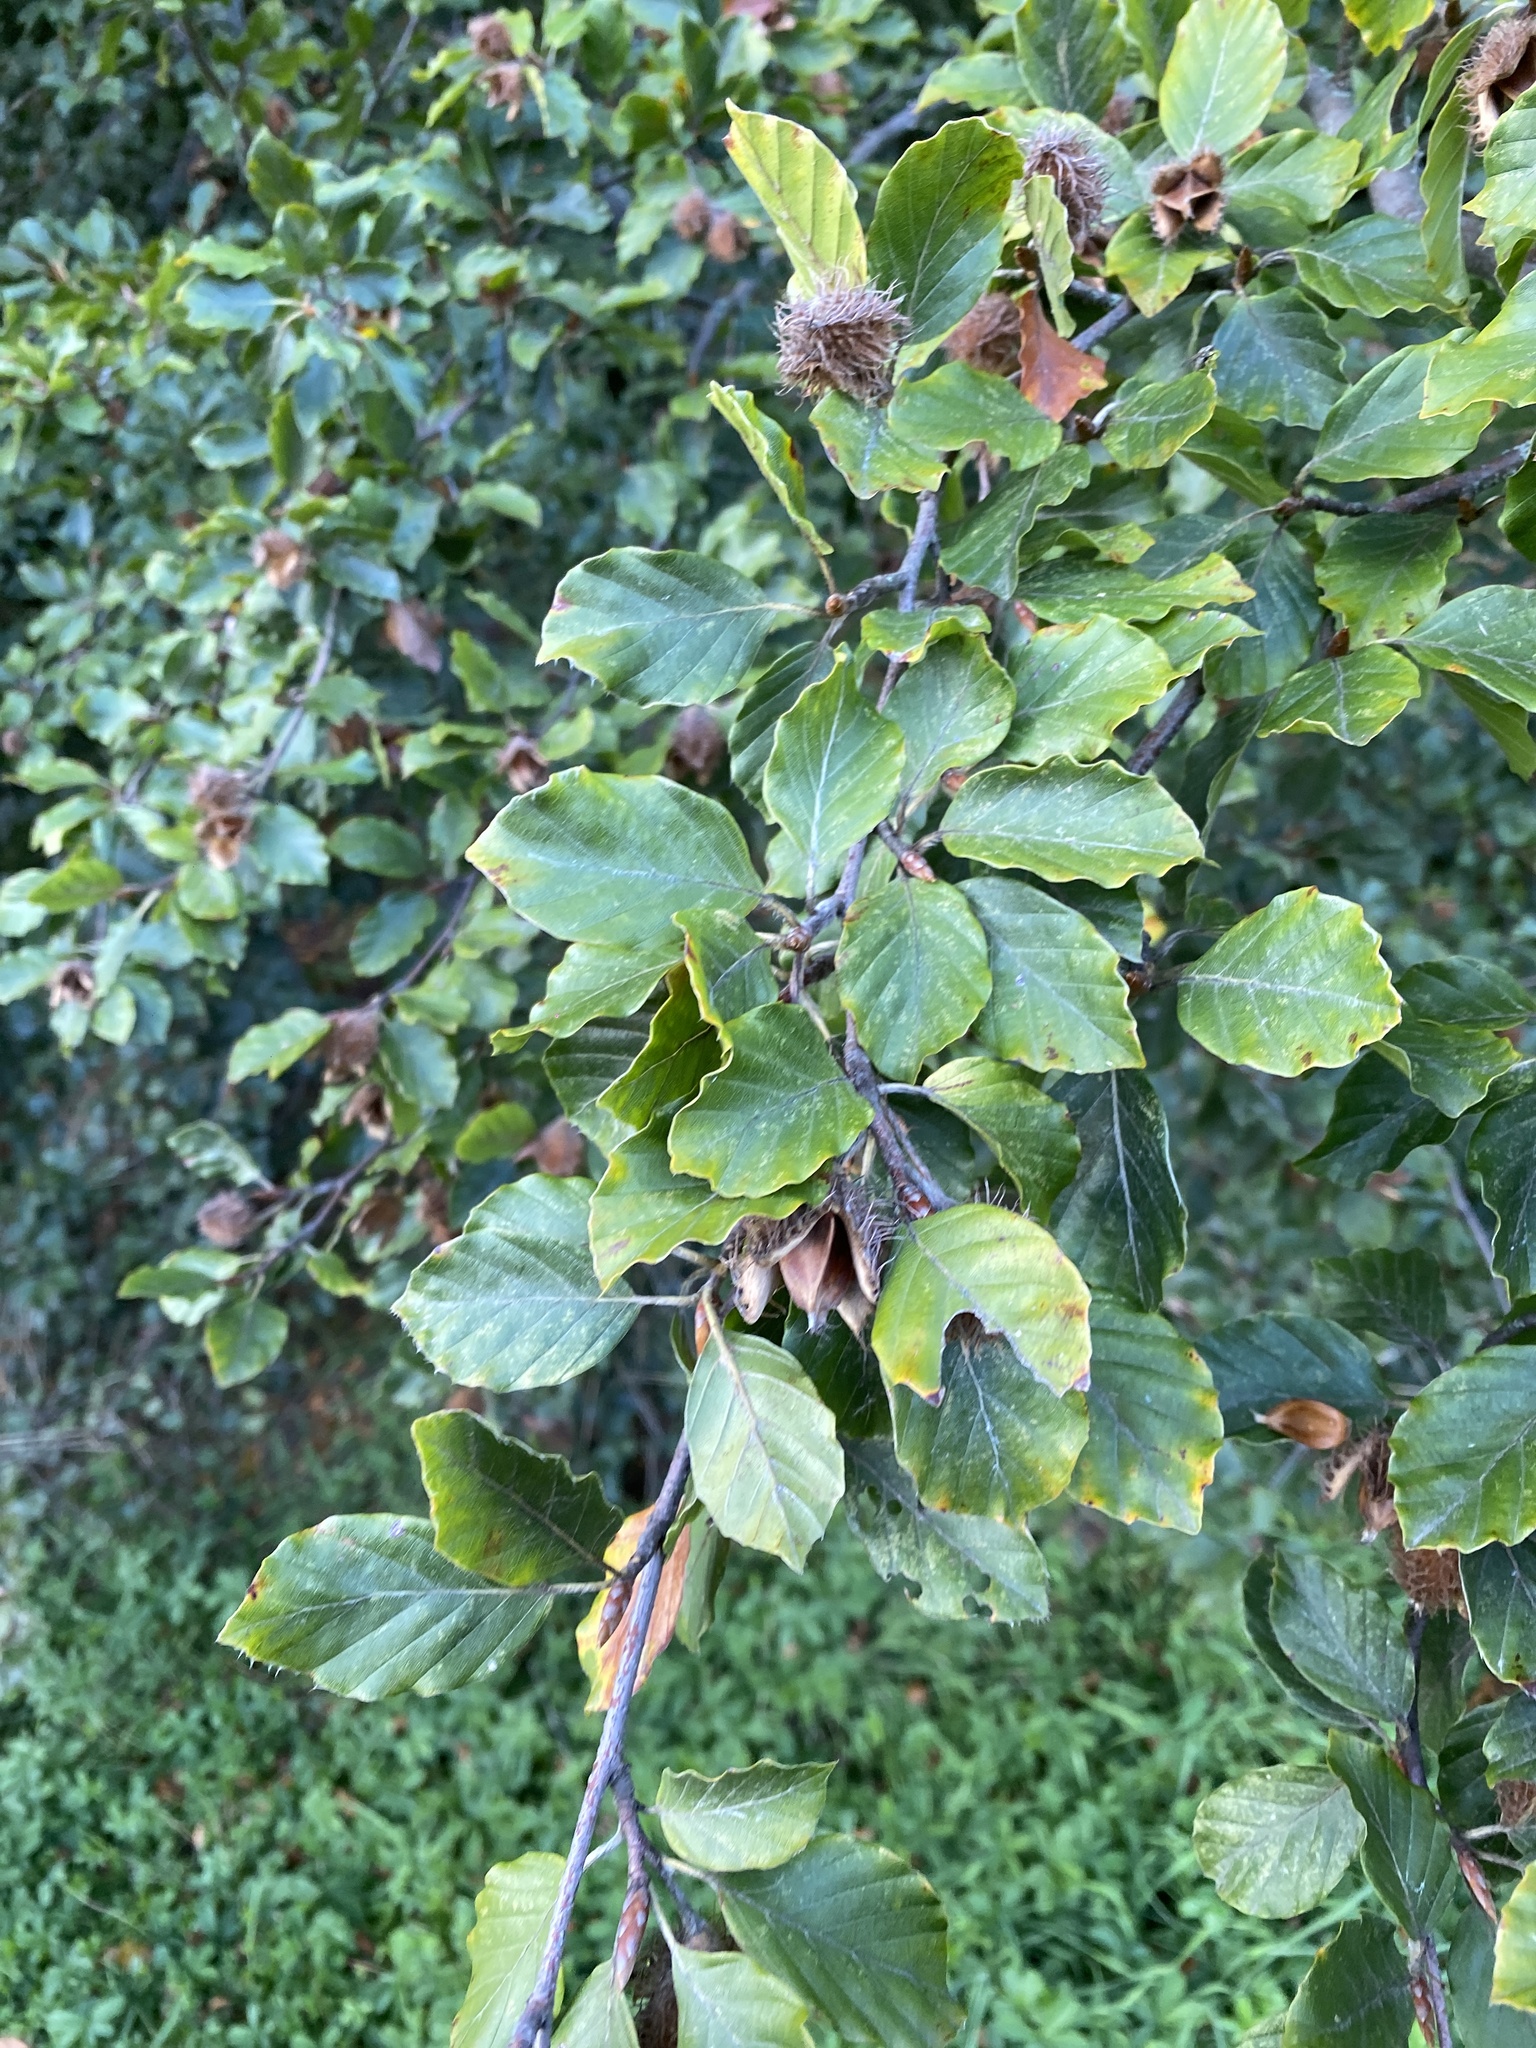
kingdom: Plantae
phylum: Tracheophyta
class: Magnoliopsida
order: Fagales
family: Fagaceae
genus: Fagus
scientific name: Fagus sylvatica
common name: Beech
